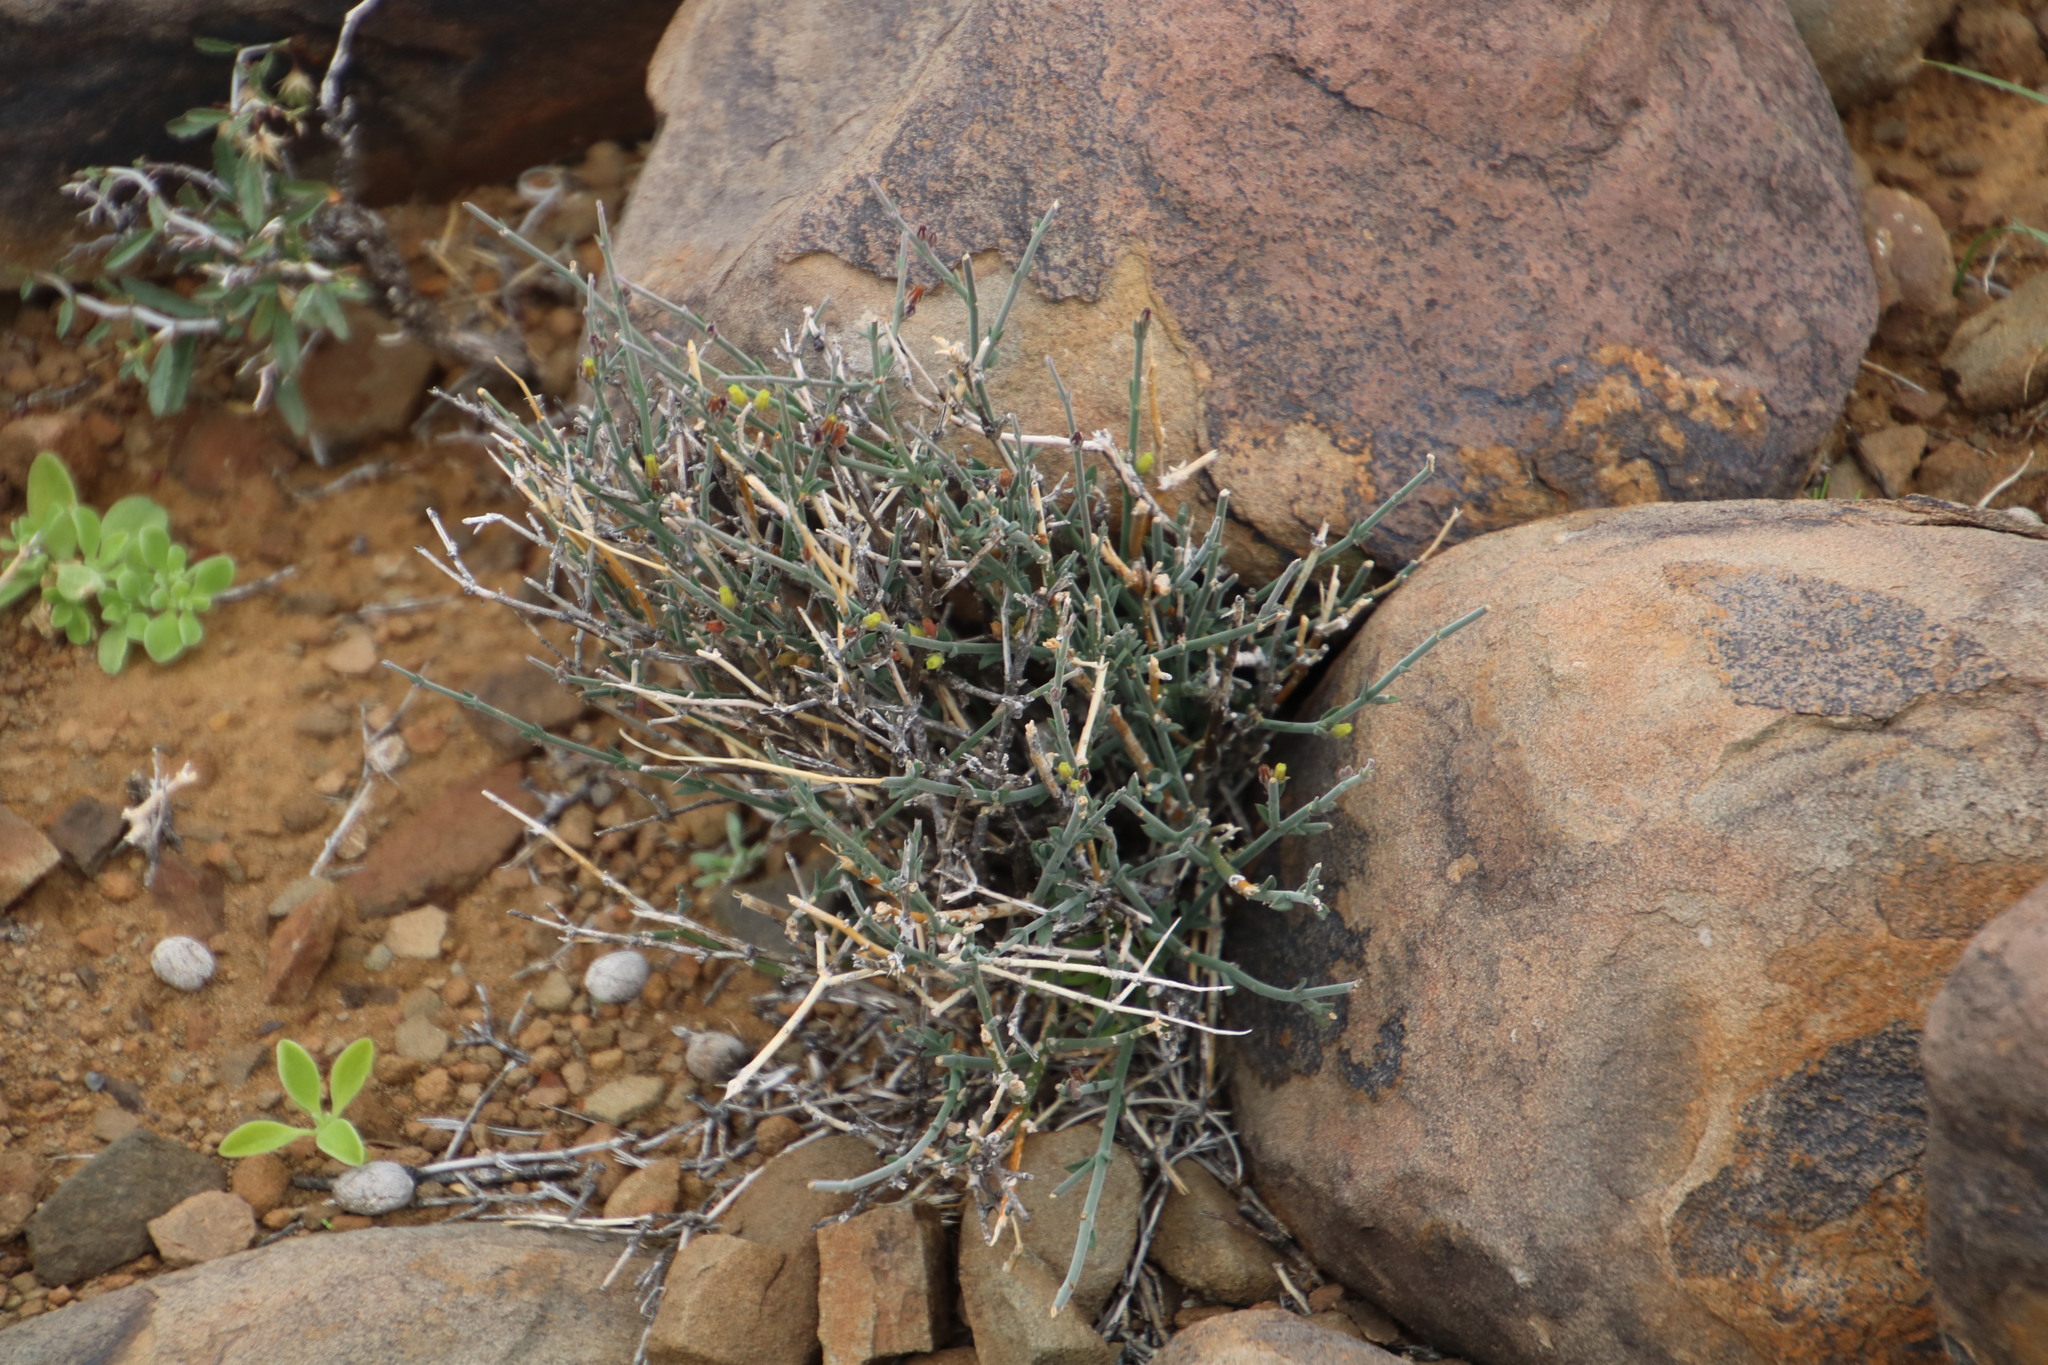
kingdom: Plantae
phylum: Tracheophyta
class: Magnoliopsida
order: Gentianales
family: Apocynaceae
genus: Microloma
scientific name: Microloma armatum
